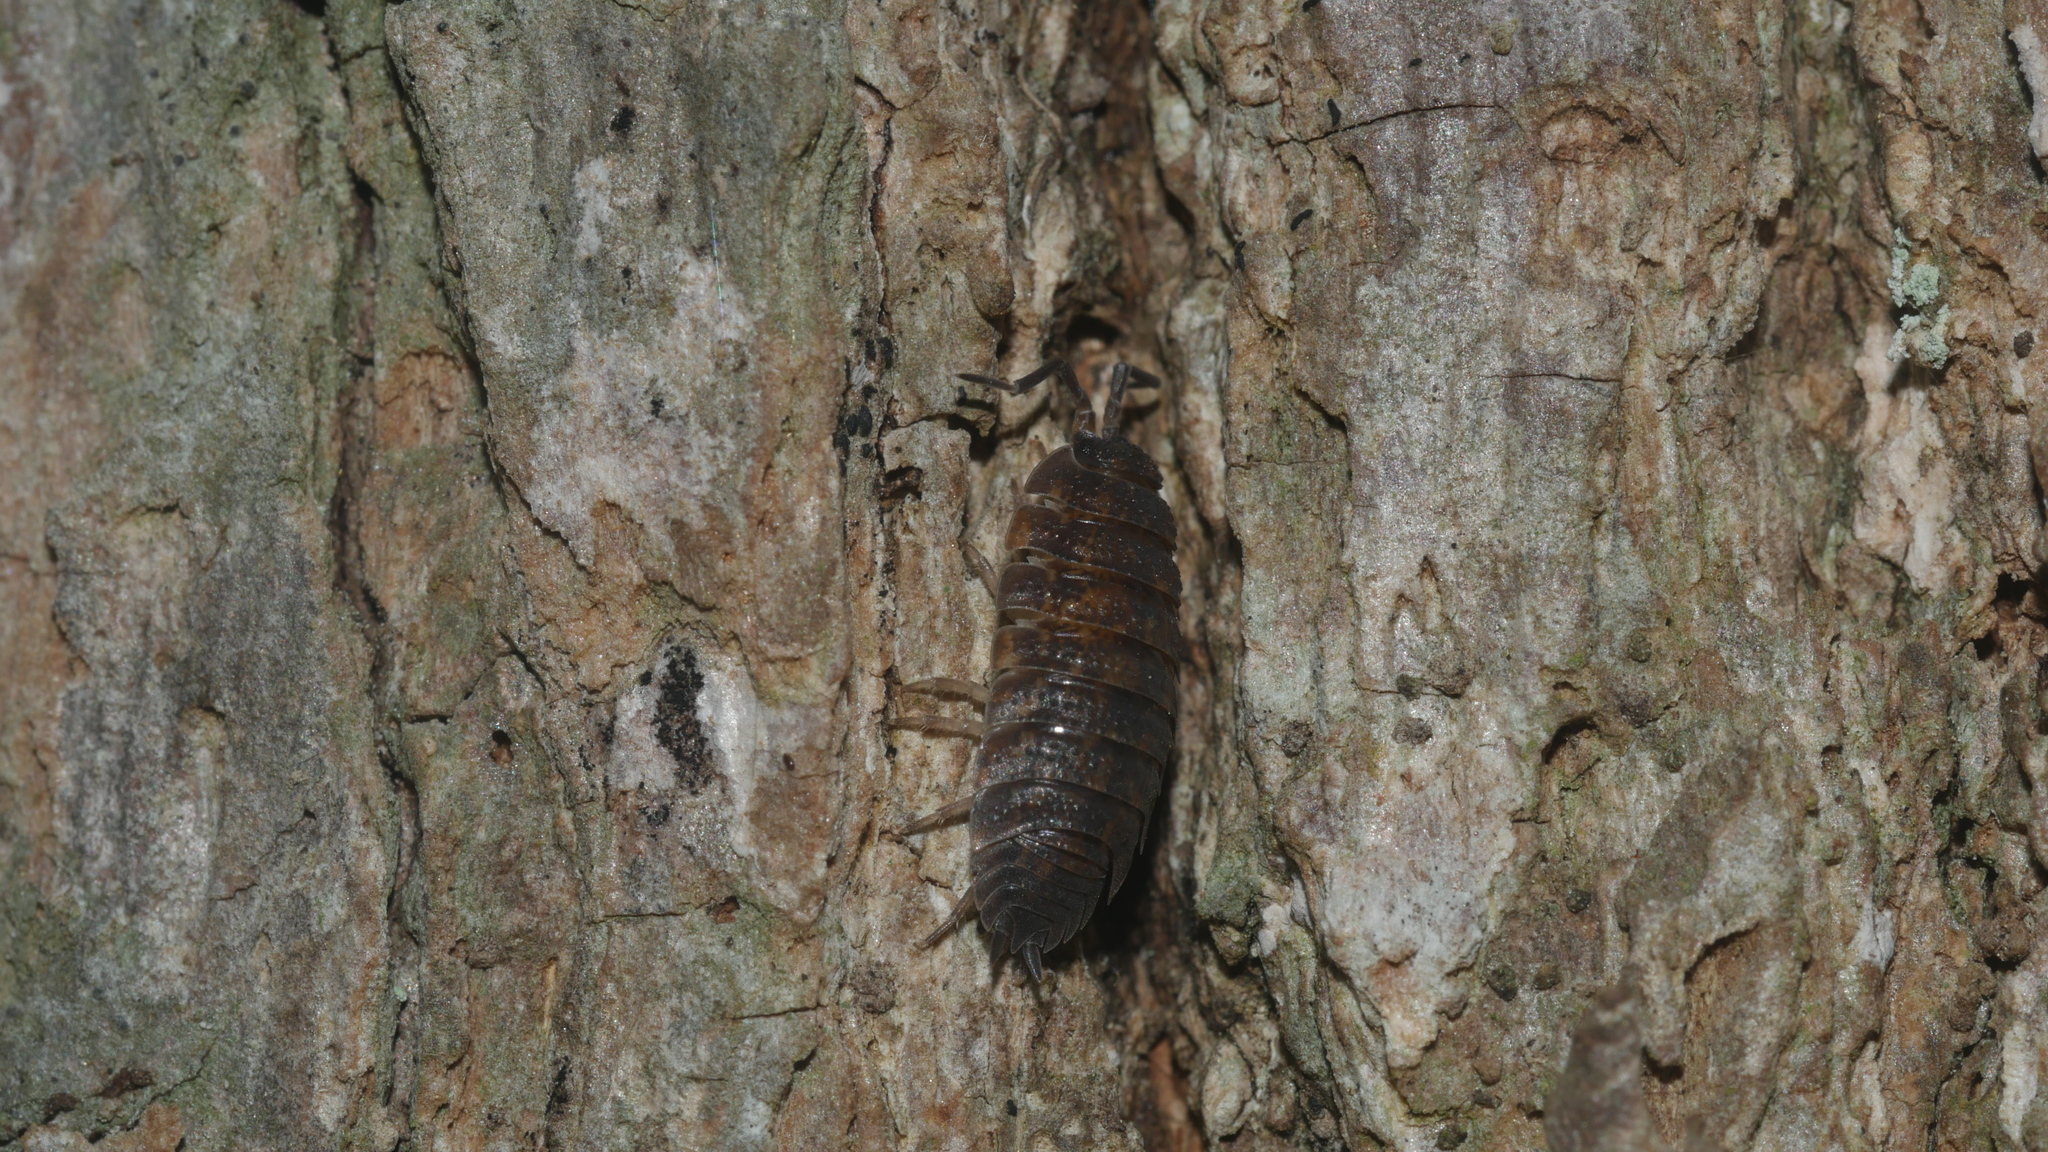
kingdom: Animalia
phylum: Arthropoda
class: Malacostraca
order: Isopoda
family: Porcellionidae
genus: Porcellio
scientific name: Porcellio scaber
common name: Common rough woodlouse
